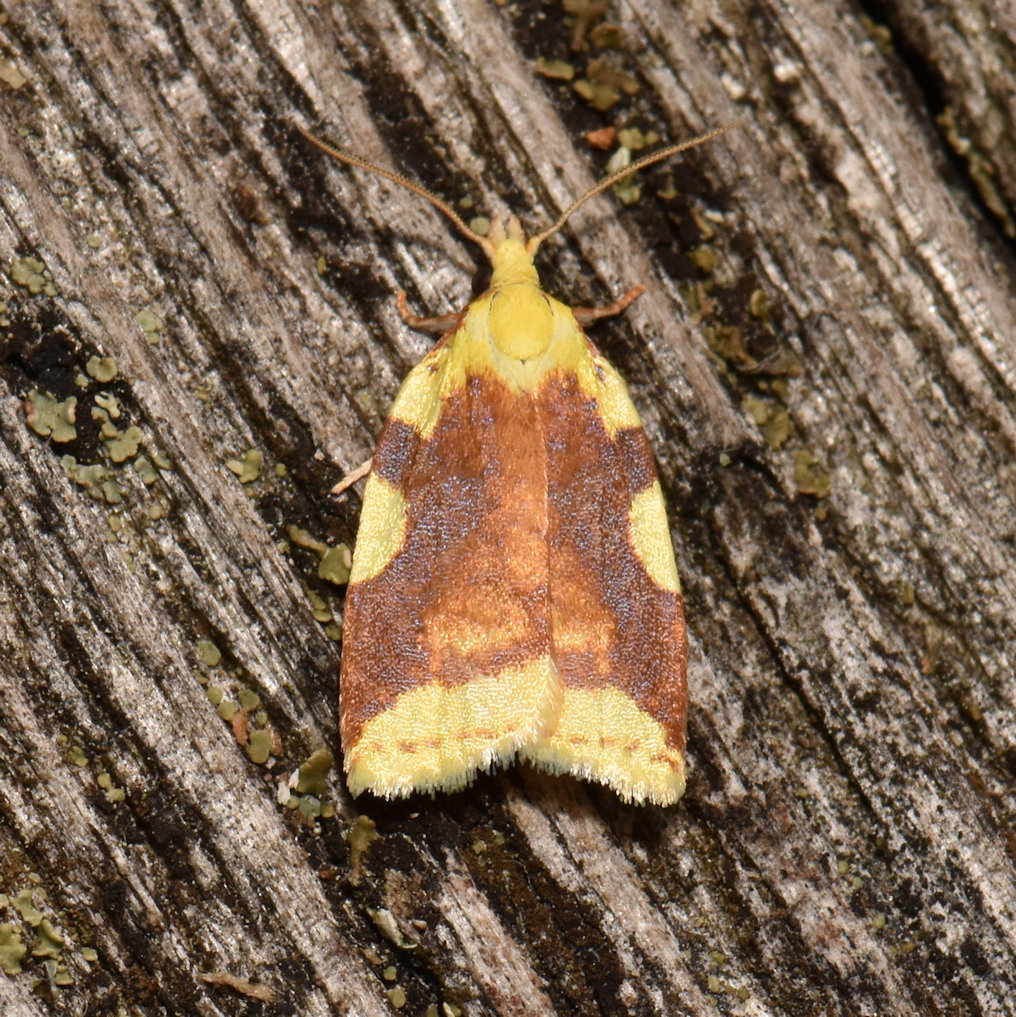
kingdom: Animalia
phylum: Arthropoda
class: Insecta
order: Lepidoptera
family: Tortricidae
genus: Cenopis
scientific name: Cenopis niveana
